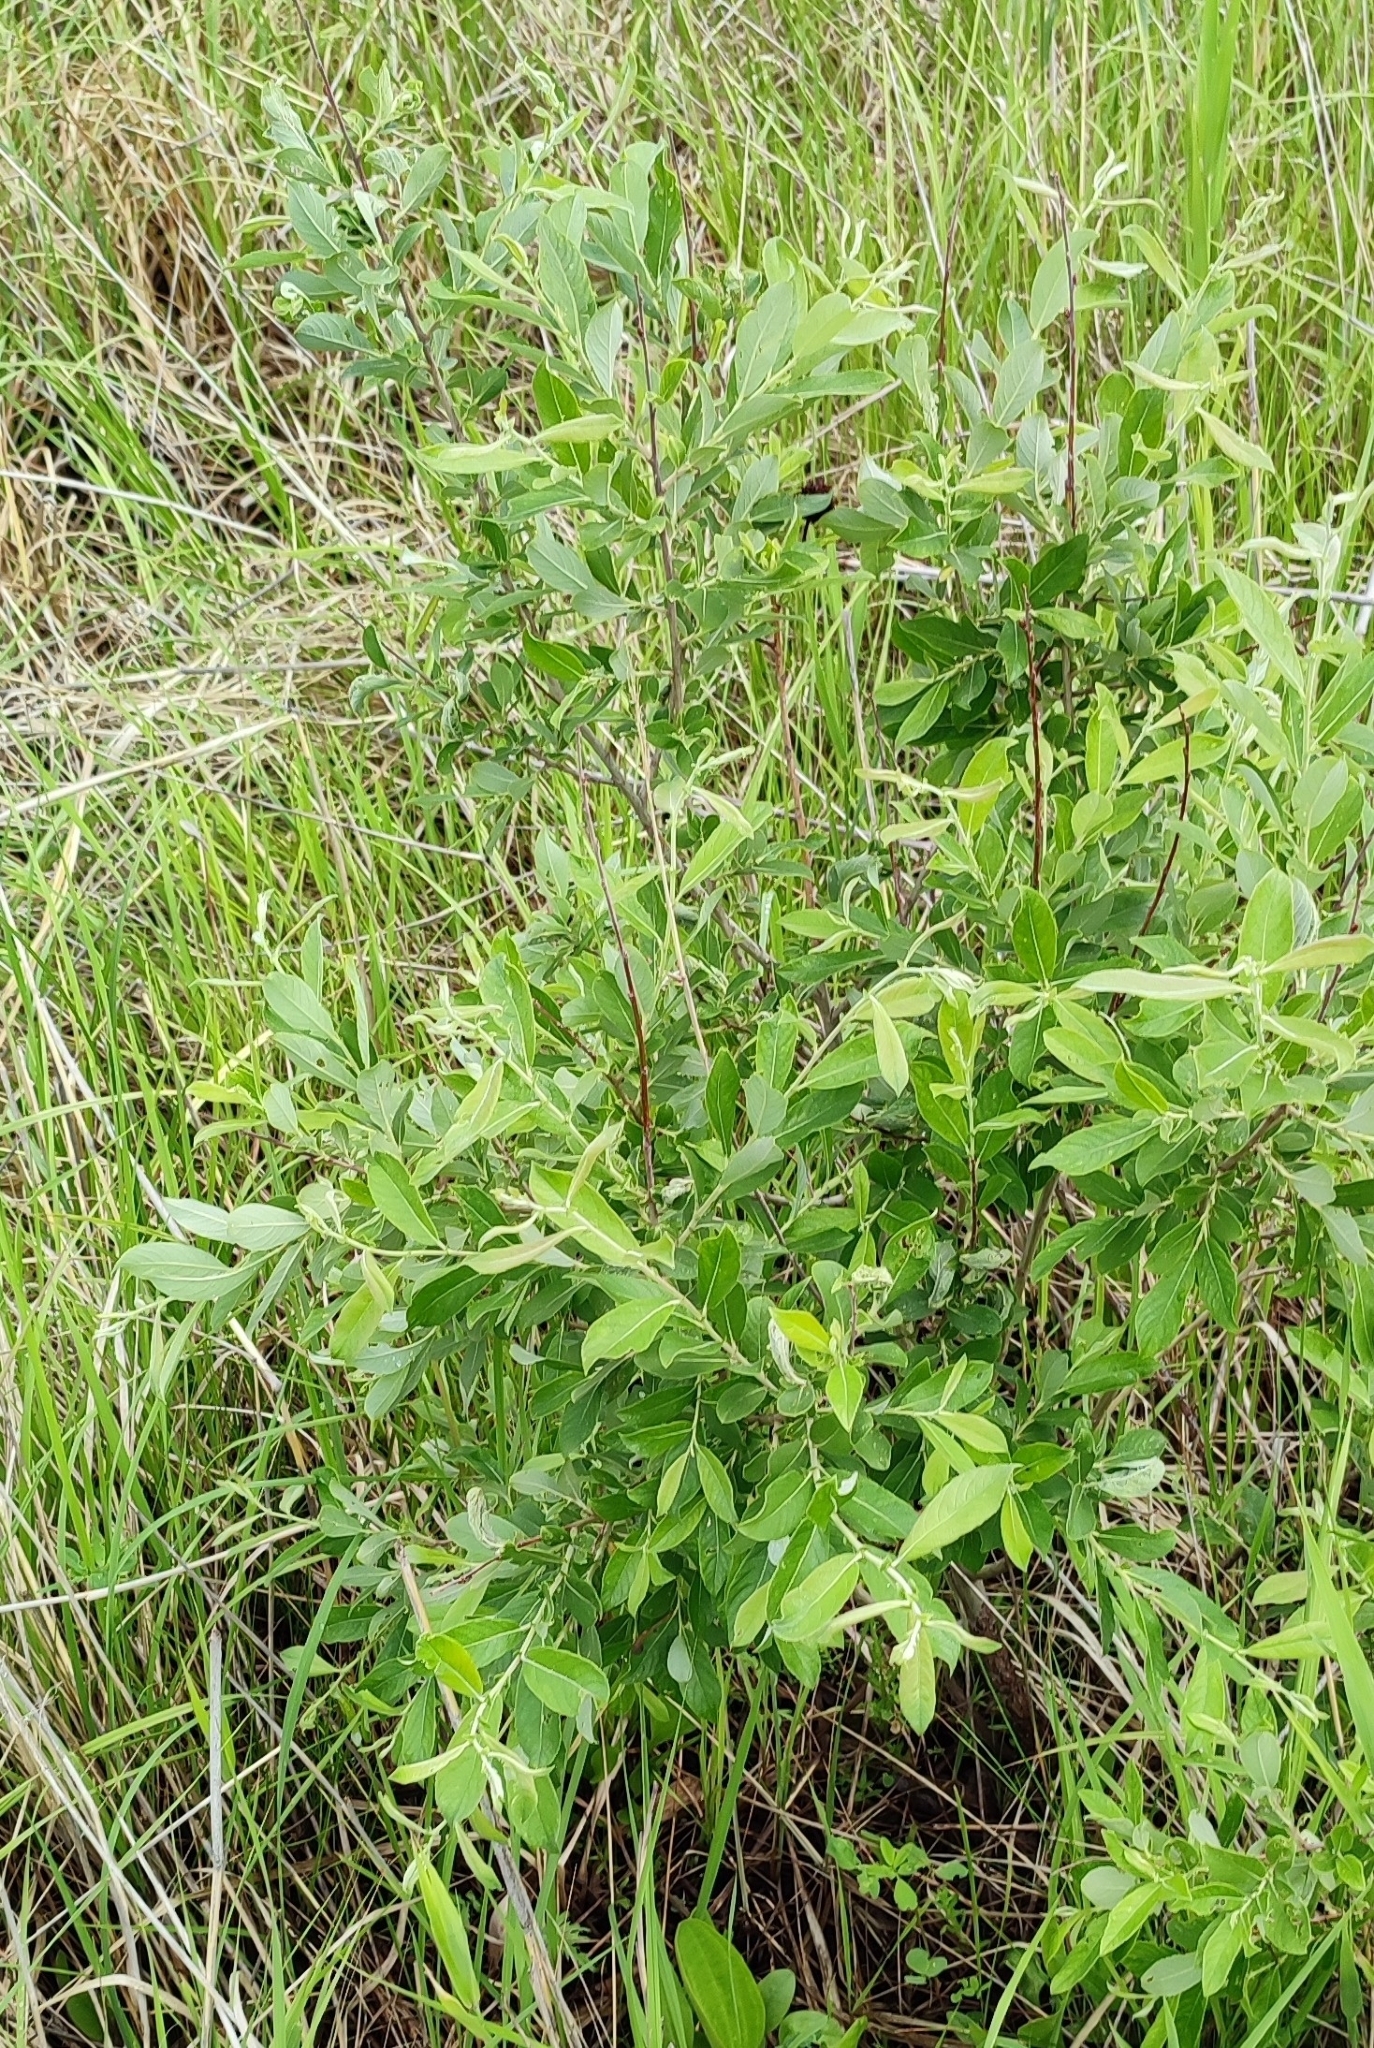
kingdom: Plantae
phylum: Tracheophyta
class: Magnoliopsida
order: Malpighiales
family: Salicaceae
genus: Salix
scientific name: Salix cinerea
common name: Common sallow
